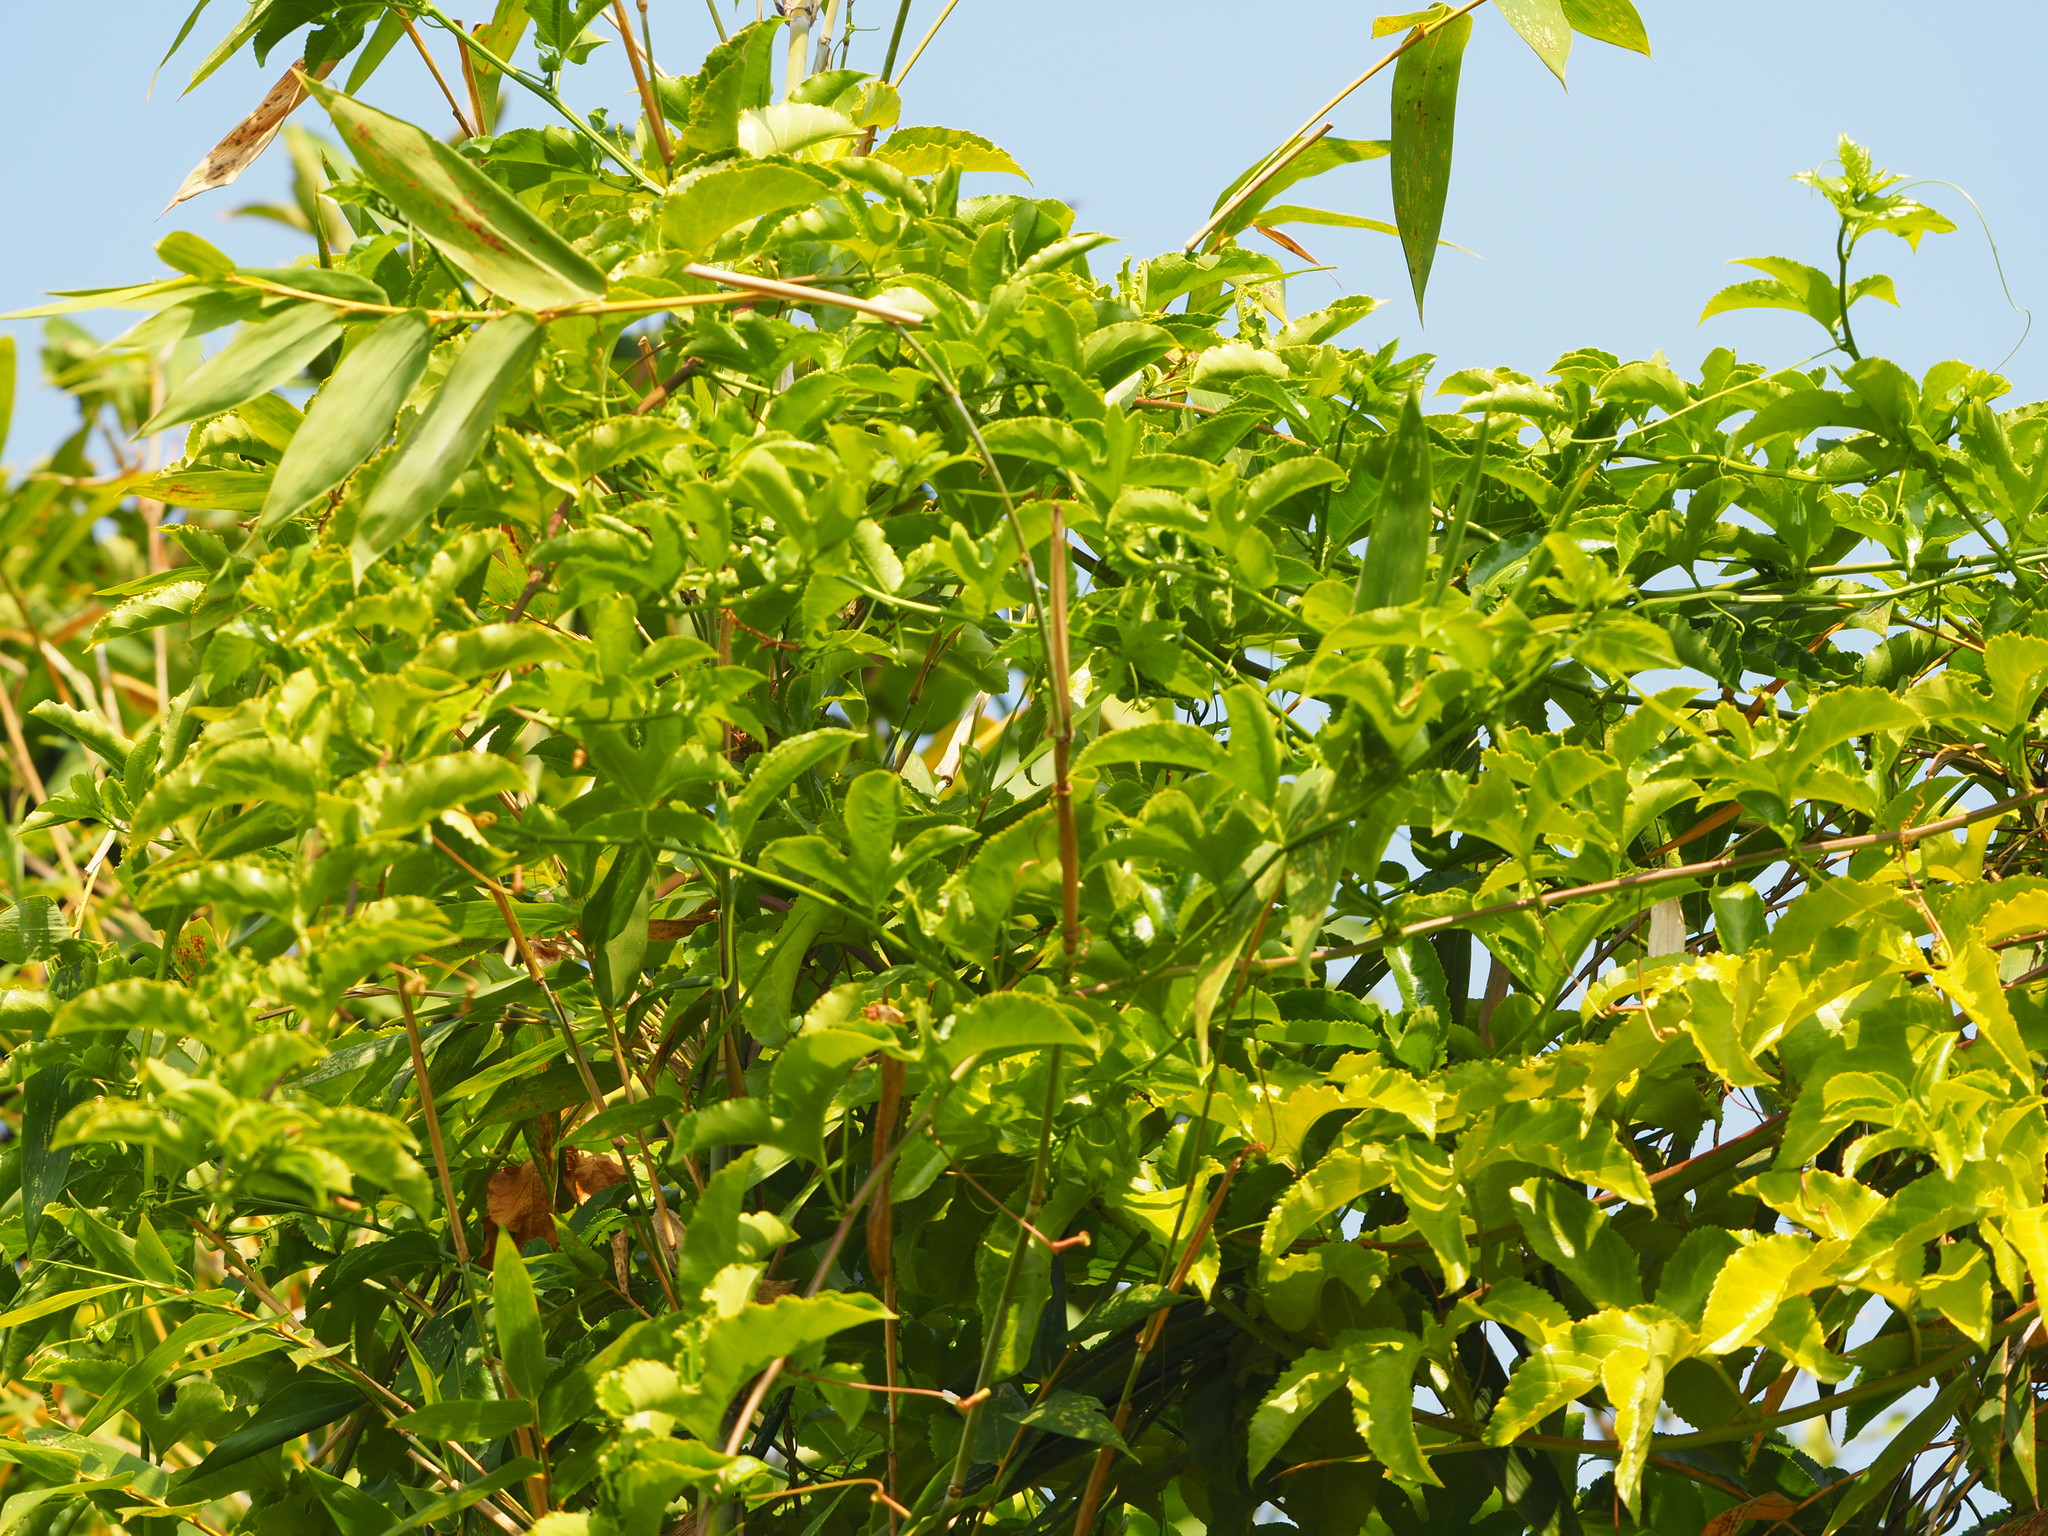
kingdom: Plantae
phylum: Tracheophyta
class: Magnoliopsida
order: Malpighiales
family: Passifloraceae
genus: Passiflora
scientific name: Passiflora edulis
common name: Purple granadilla
